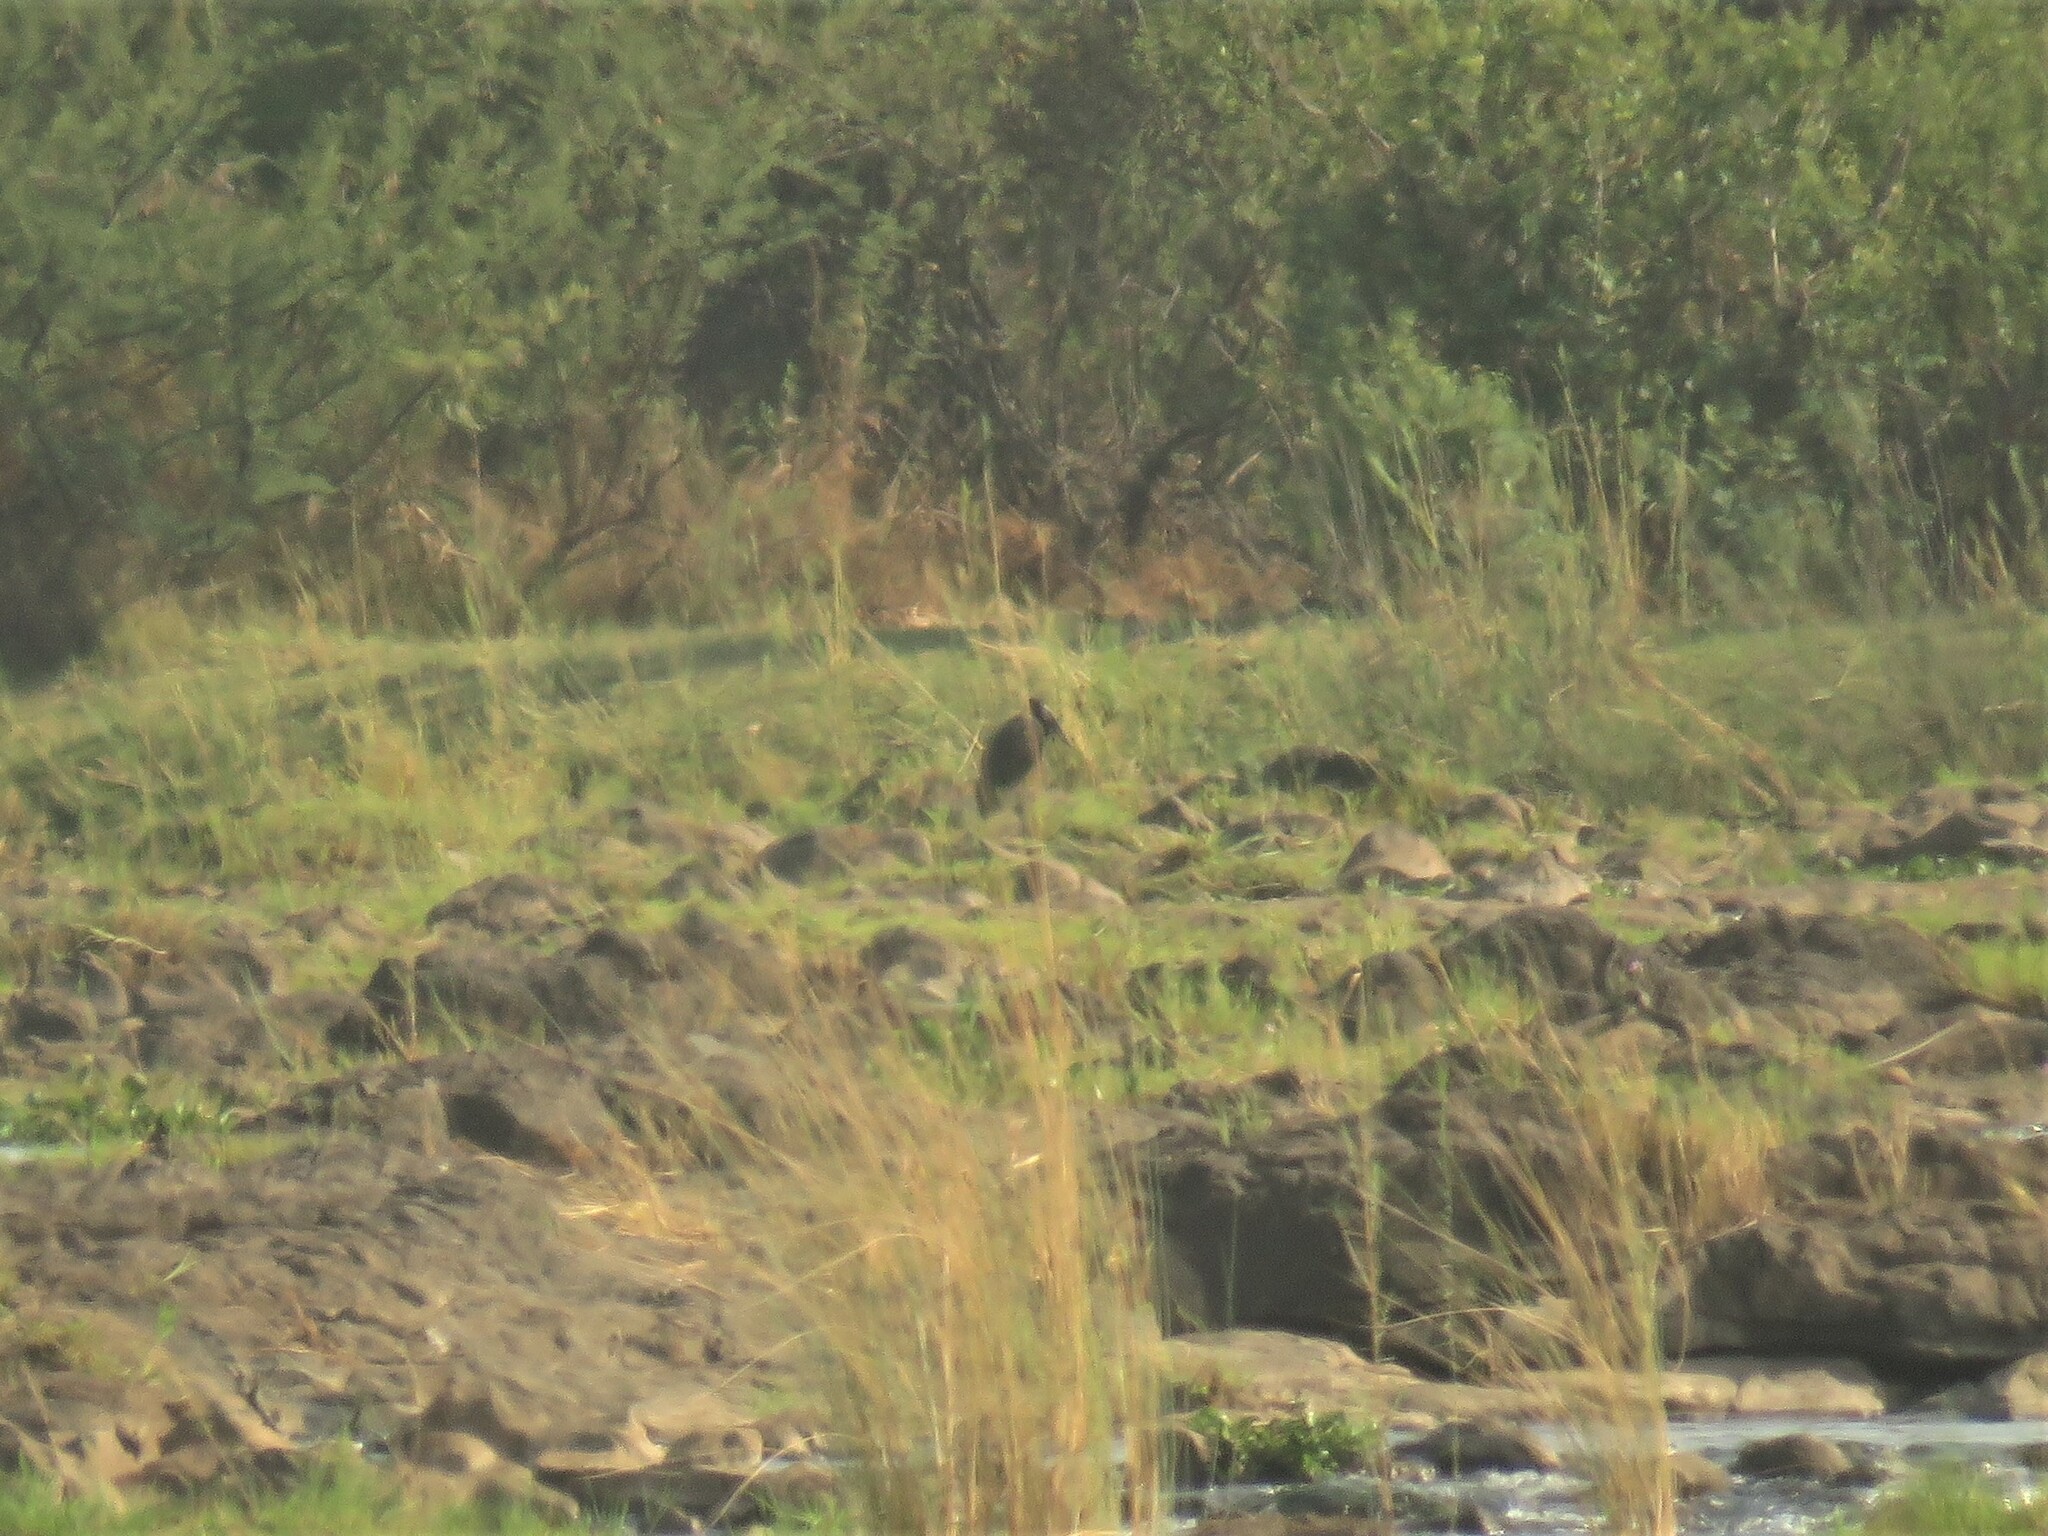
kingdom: Animalia
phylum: Chordata
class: Aves
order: Ciconiiformes
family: Ciconiidae
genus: Anastomus
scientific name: Anastomus lamelligerus
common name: African openbill
